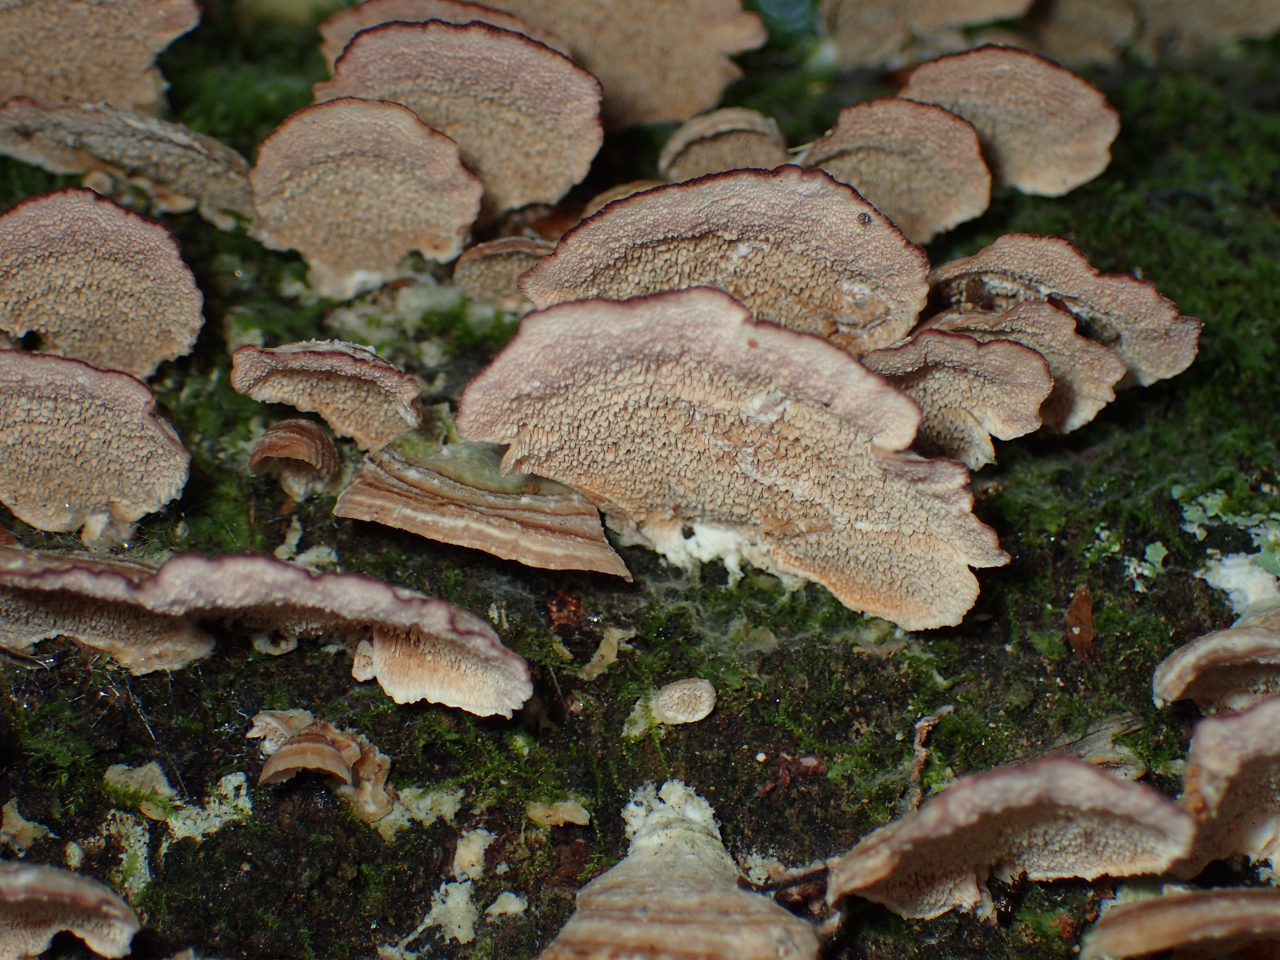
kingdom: Fungi
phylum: Basidiomycota
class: Agaricomycetes
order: Hymenochaetales
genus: Trichaptum
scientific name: Trichaptum
